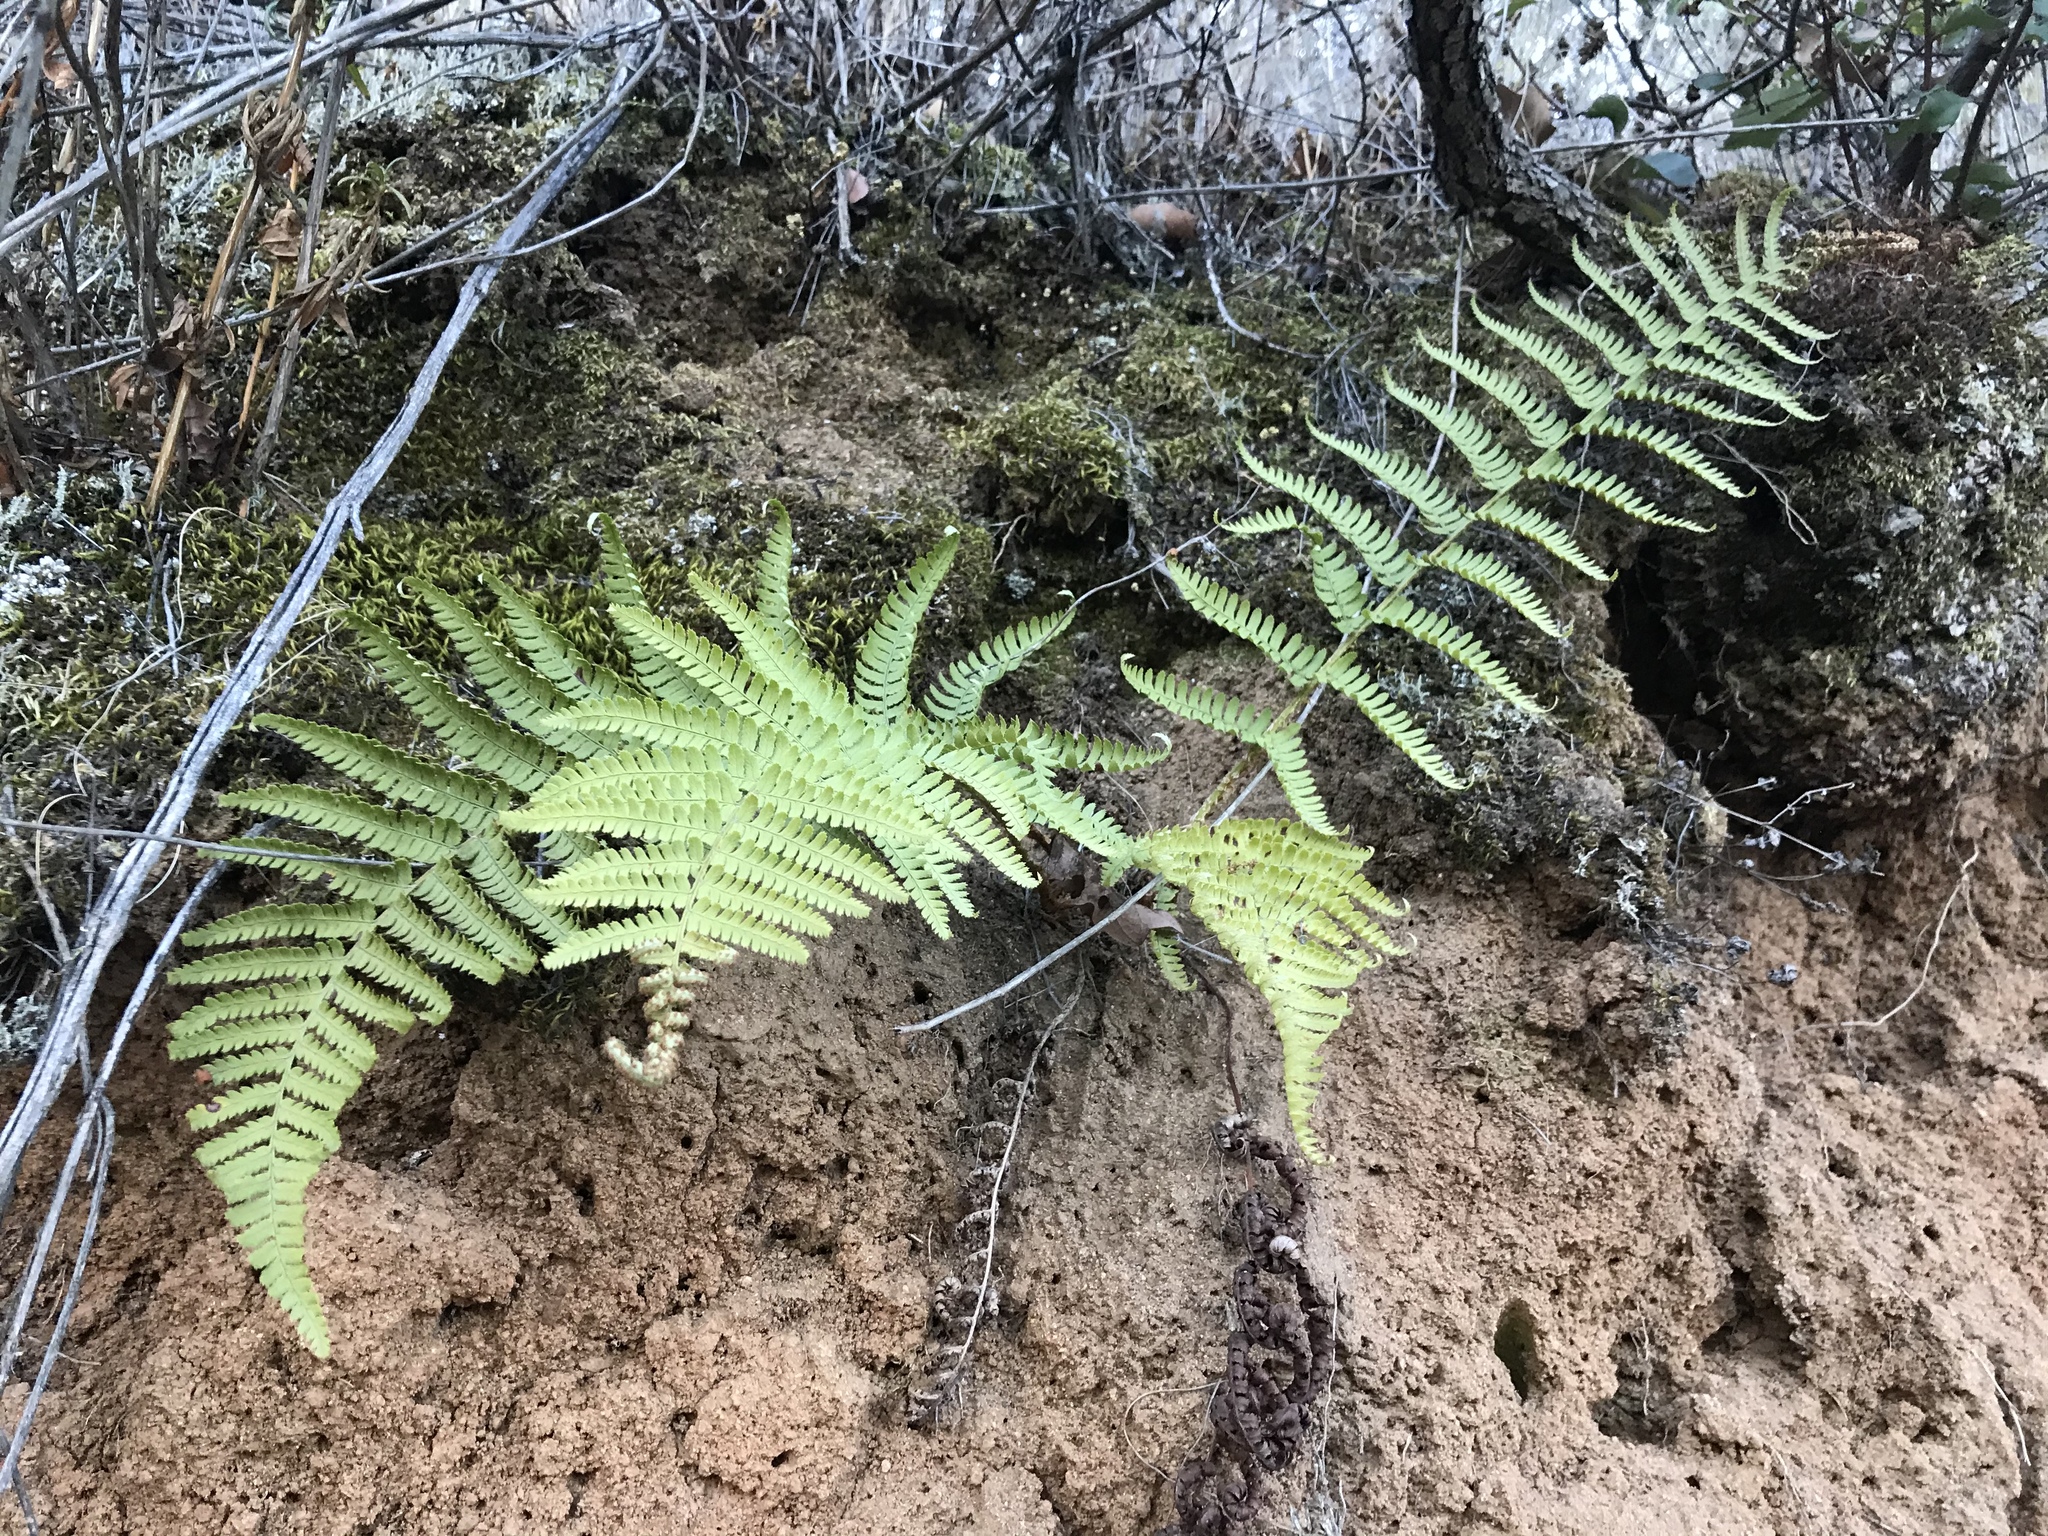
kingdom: Plantae
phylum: Tracheophyta
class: Polypodiopsida
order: Polypodiales
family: Dryopteridaceae
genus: Dryopteris
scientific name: Dryopteris arguta
